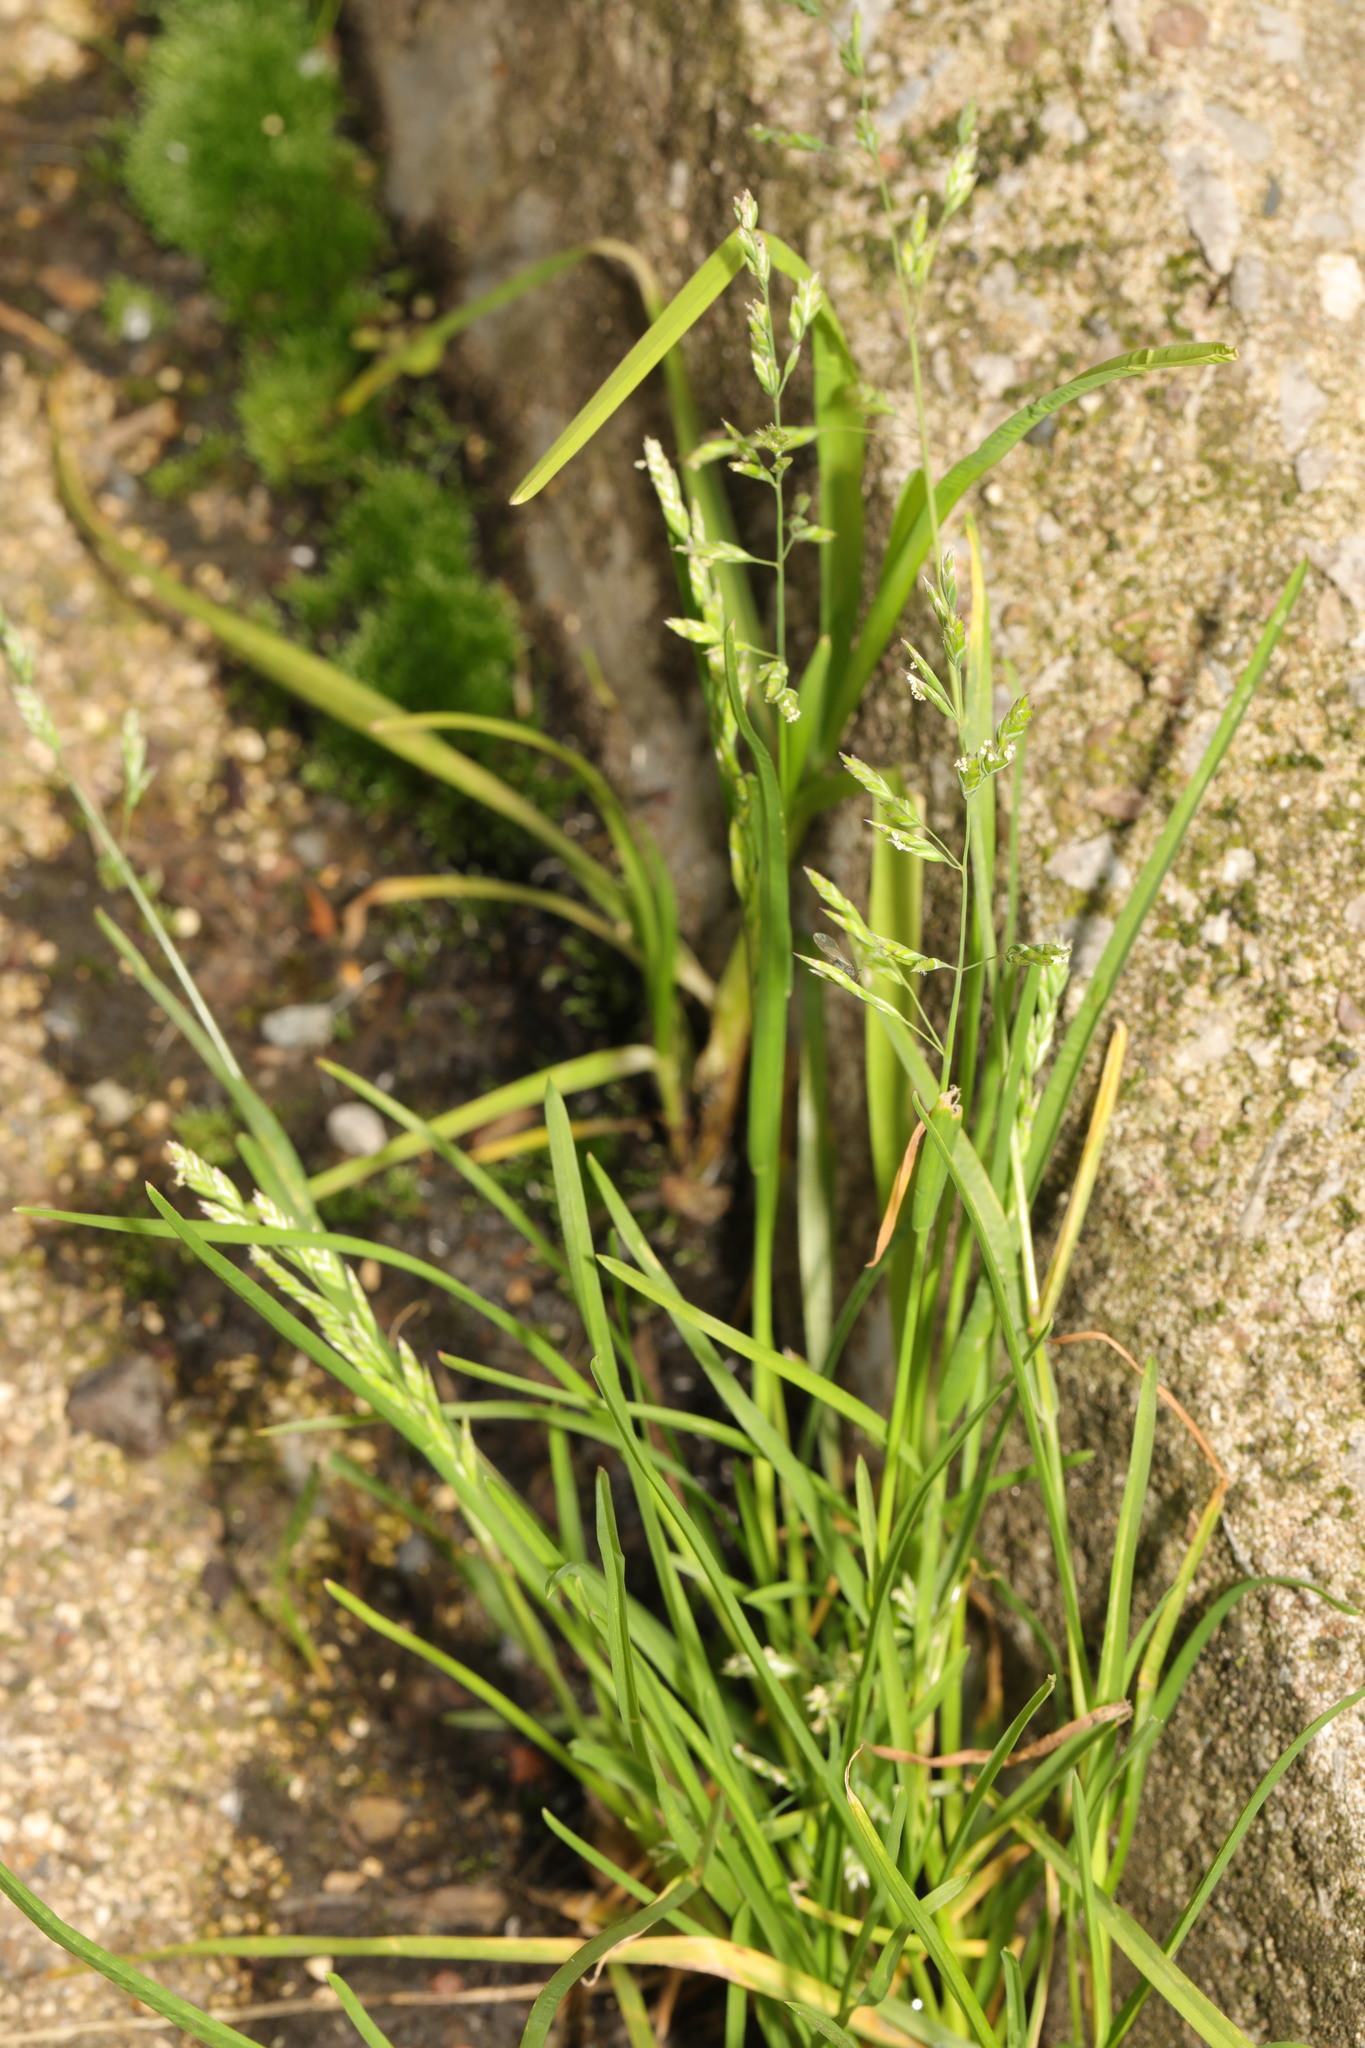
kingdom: Plantae
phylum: Tracheophyta
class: Liliopsida
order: Poales
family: Poaceae
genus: Poa
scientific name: Poa annua
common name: Annual bluegrass
